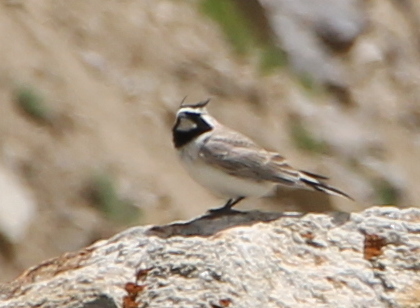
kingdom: Animalia
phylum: Chordata
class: Aves
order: Passeriformes
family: Alaudidae
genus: Eremophila
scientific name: Eremophila alpestris
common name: Horned lark
